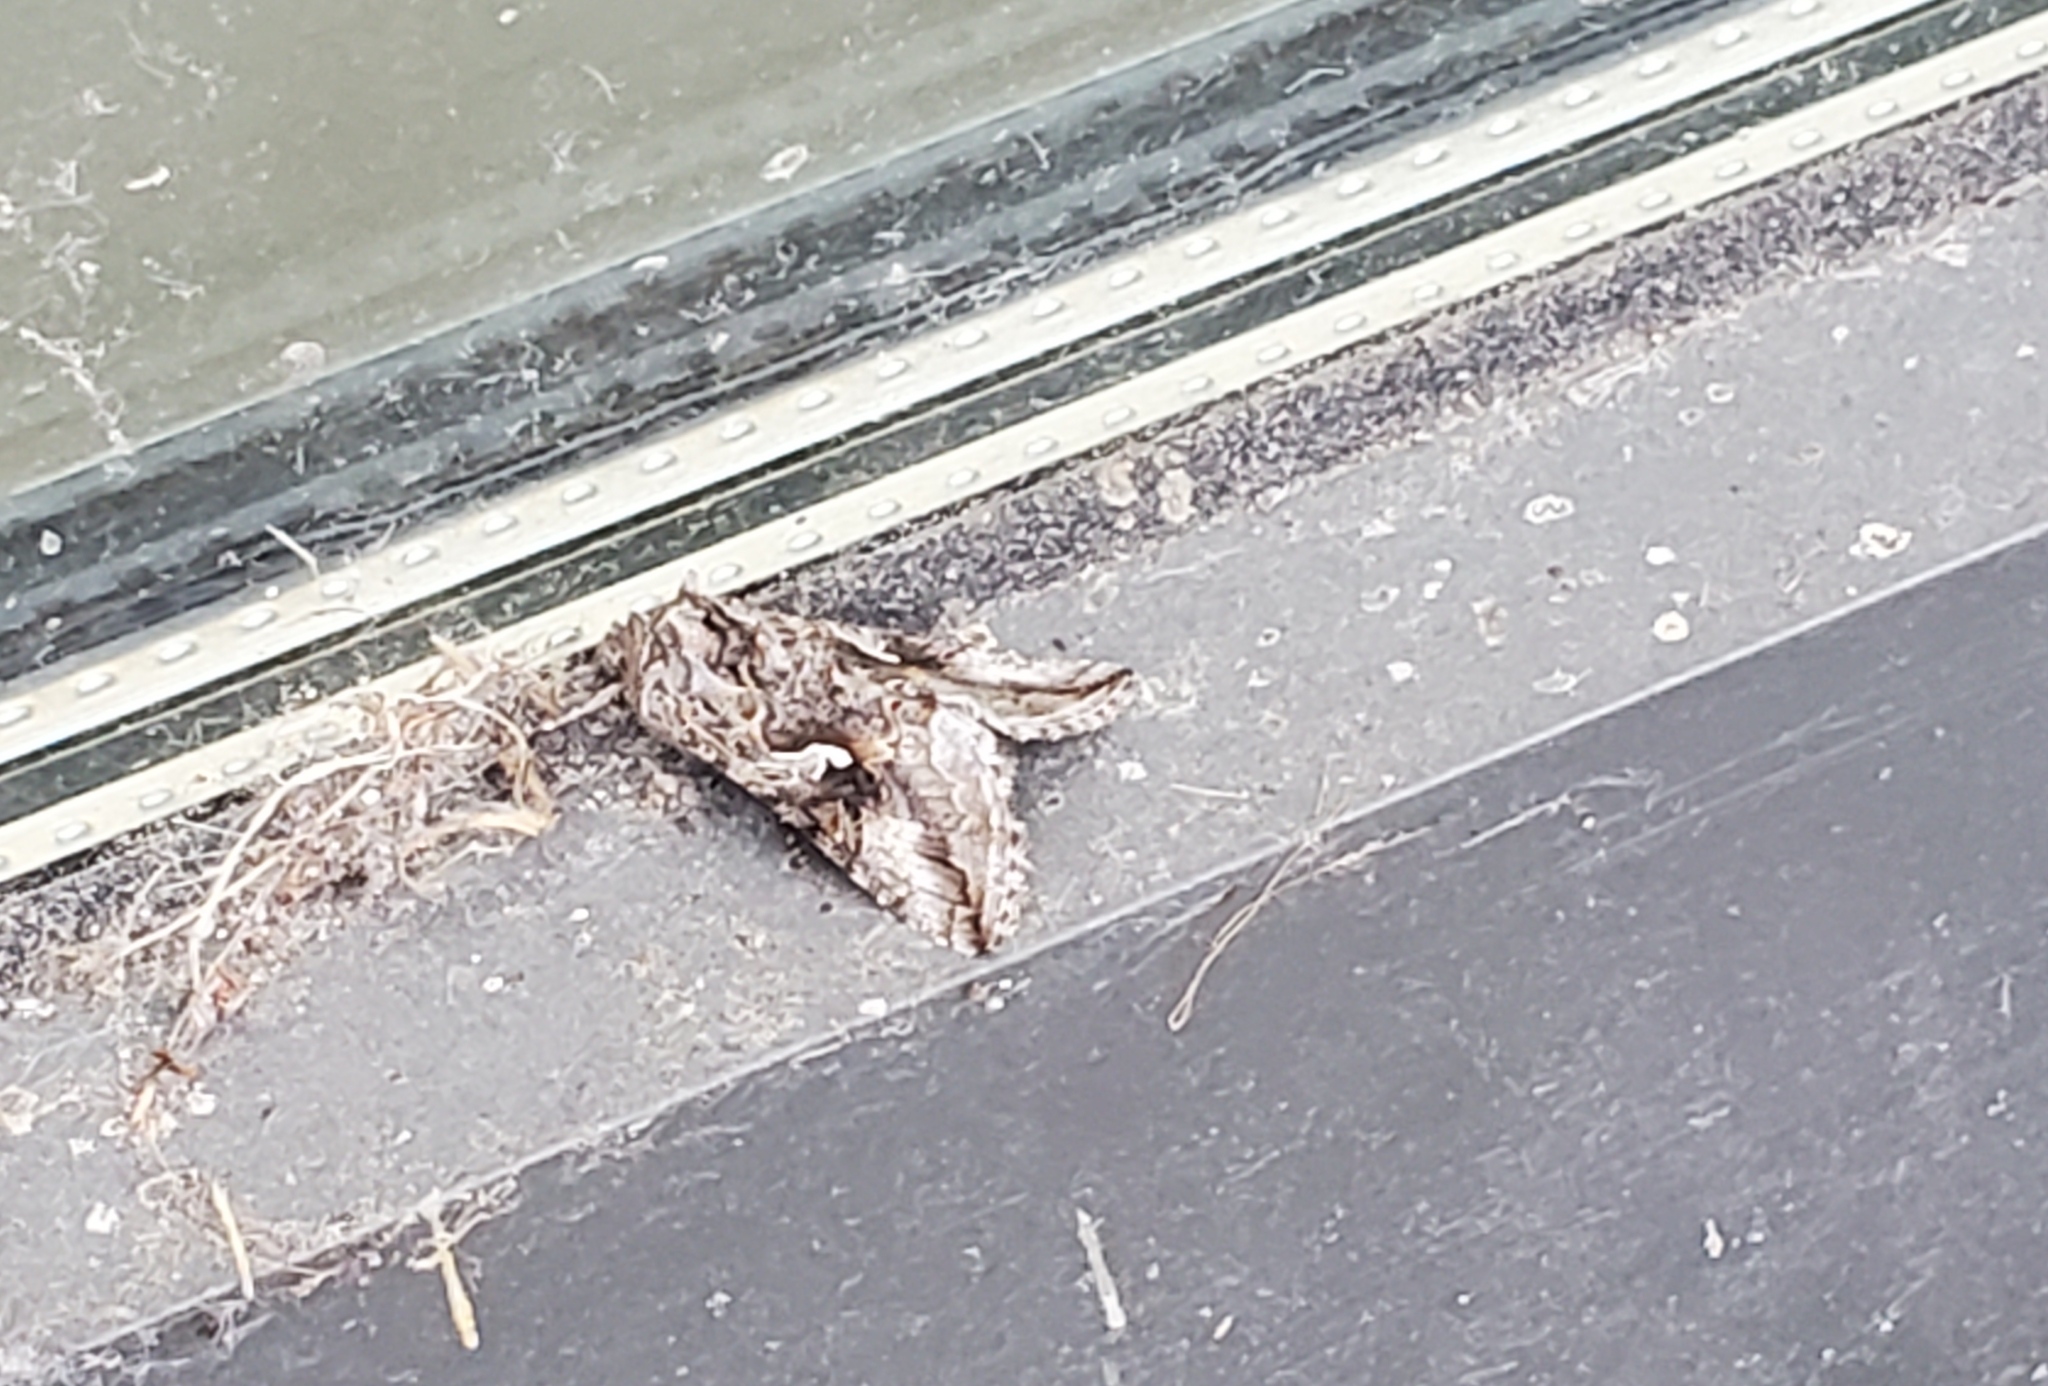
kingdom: Animalia
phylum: Arthropoda
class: Insecta
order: Lepidoptera
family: Noctuidae
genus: Autographa
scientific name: Autographa californica
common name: Alfalfa looper
